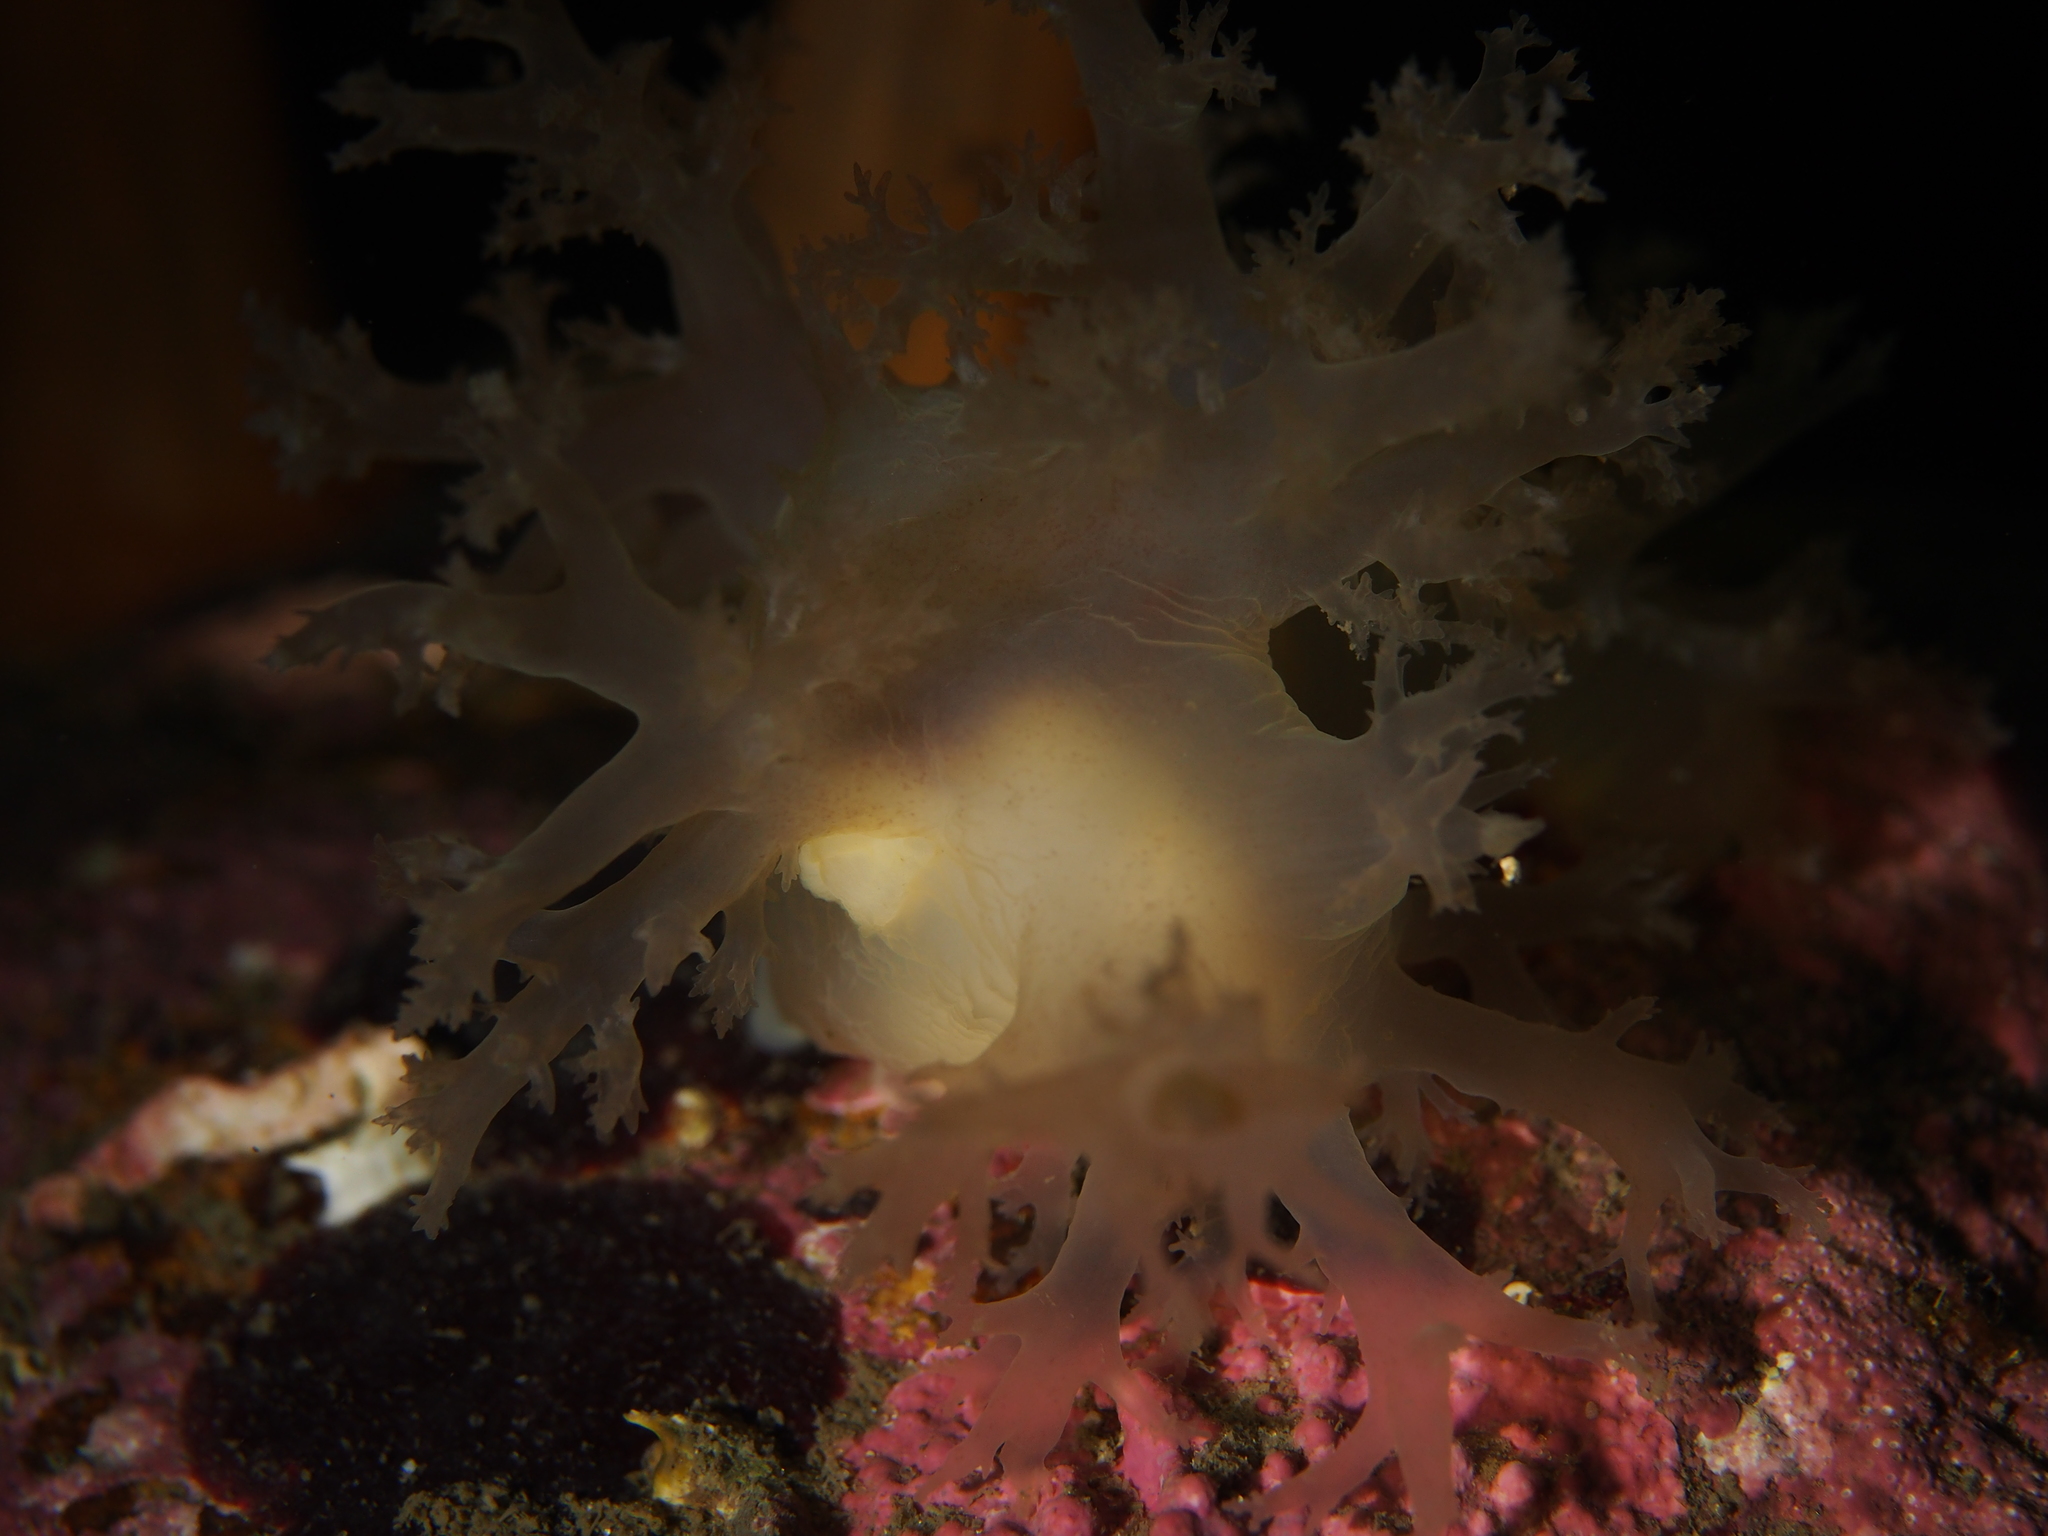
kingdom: Animalia
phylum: Mollusca
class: Gastropoda
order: Nudibranchia
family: Dendronotidae
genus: Dendronotus
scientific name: Dendronotus lacteus
